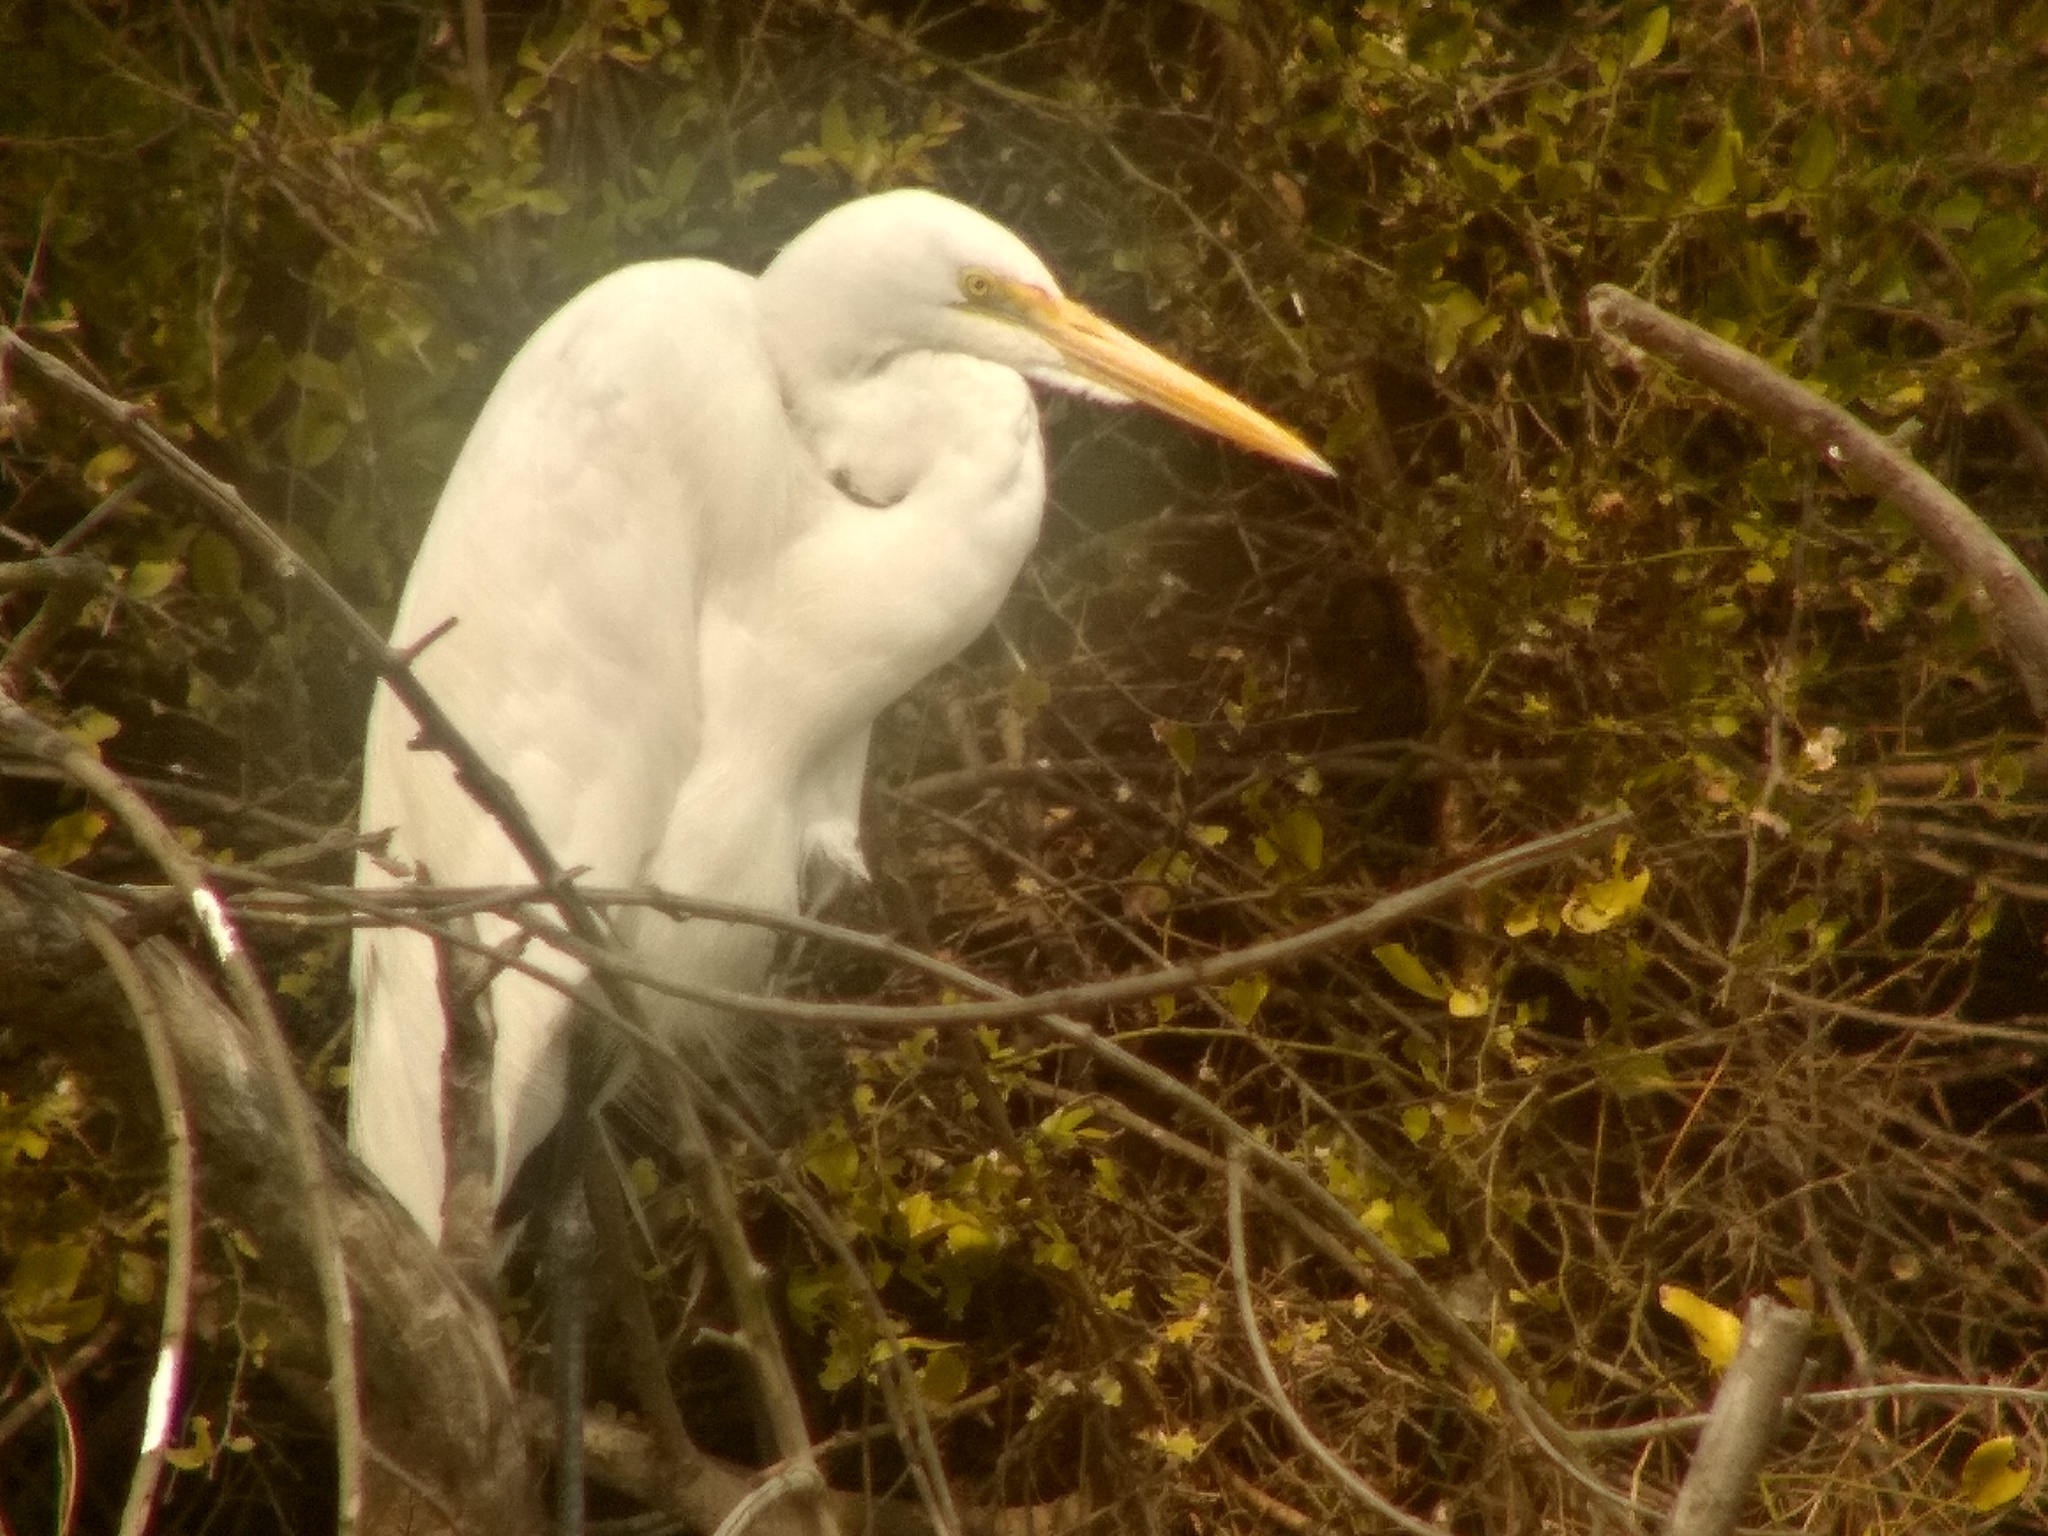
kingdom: Animalia
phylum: Chordata
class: Aves
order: Pelecaniformes
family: Ardeidae
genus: Ardea
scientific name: Ardea alba
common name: Great egret
